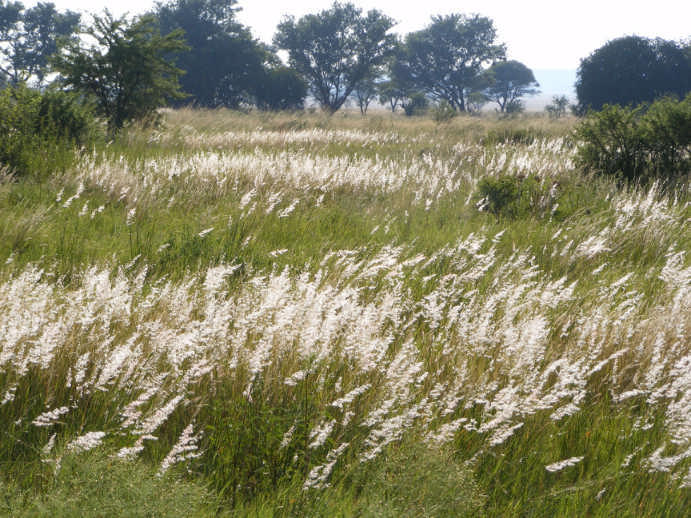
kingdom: Plantae
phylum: Tracheophyta
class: Liliopsida
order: Poales
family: Poaceae
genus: Melinis
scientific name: Melinis repens
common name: Rose natal grass
